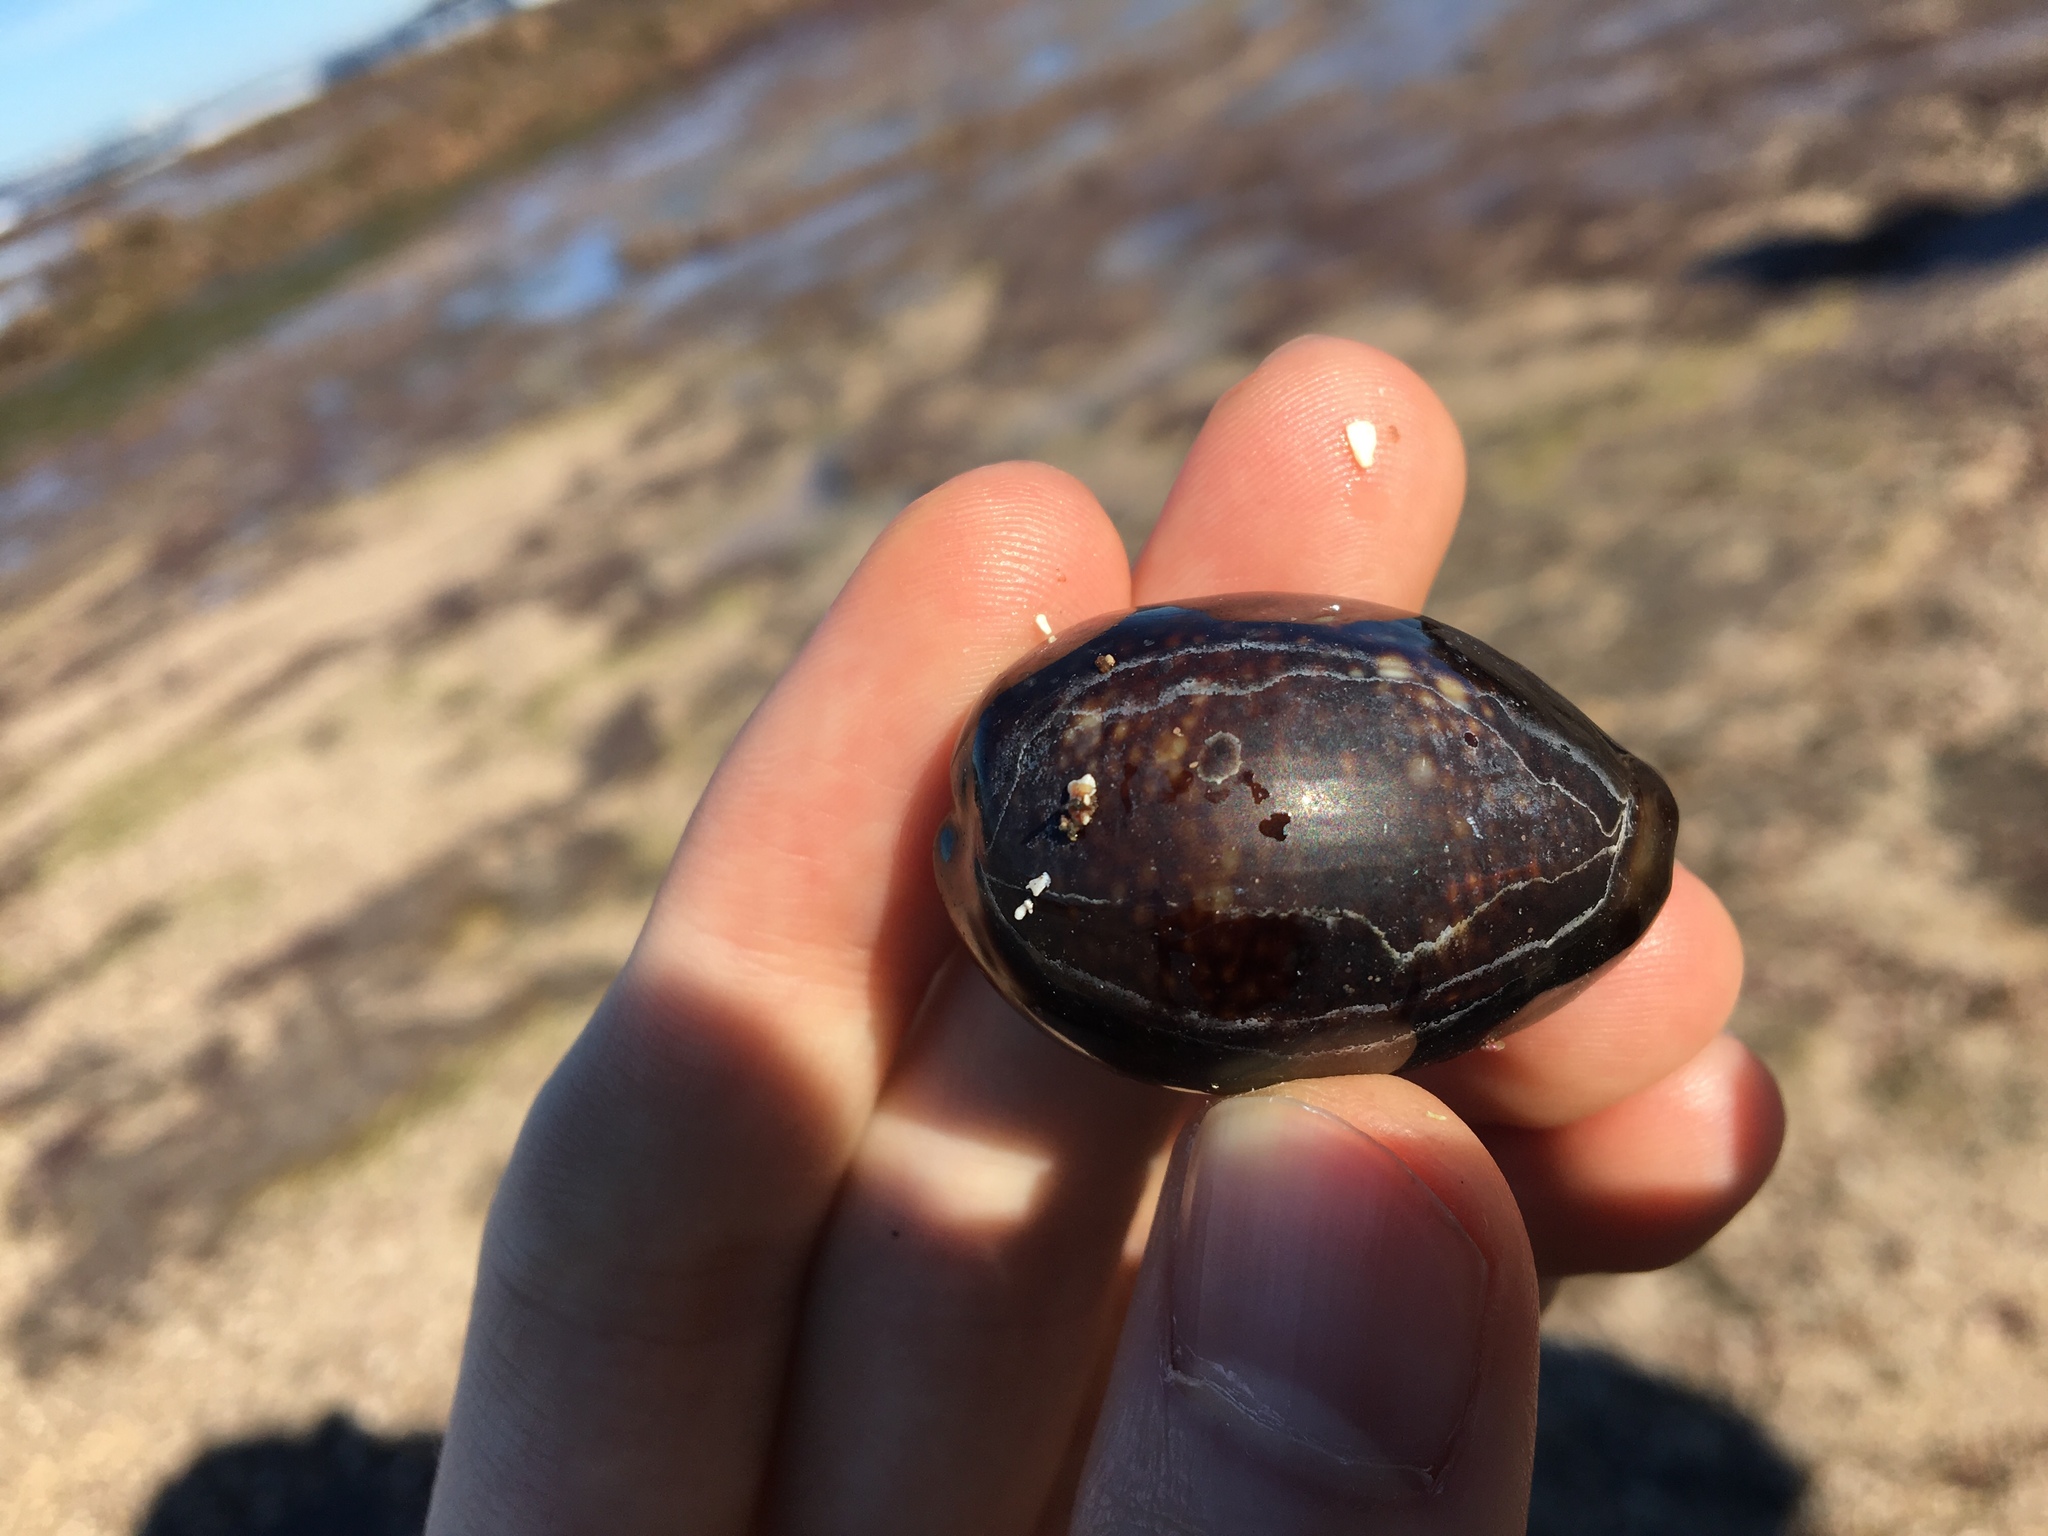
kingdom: Animalia
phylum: Mollusca
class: Gastropoda
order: Littorinimorpha
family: Cypraeidae
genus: Monetaria
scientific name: Monetaria caputserpentis
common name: Serpent's head cowrie
